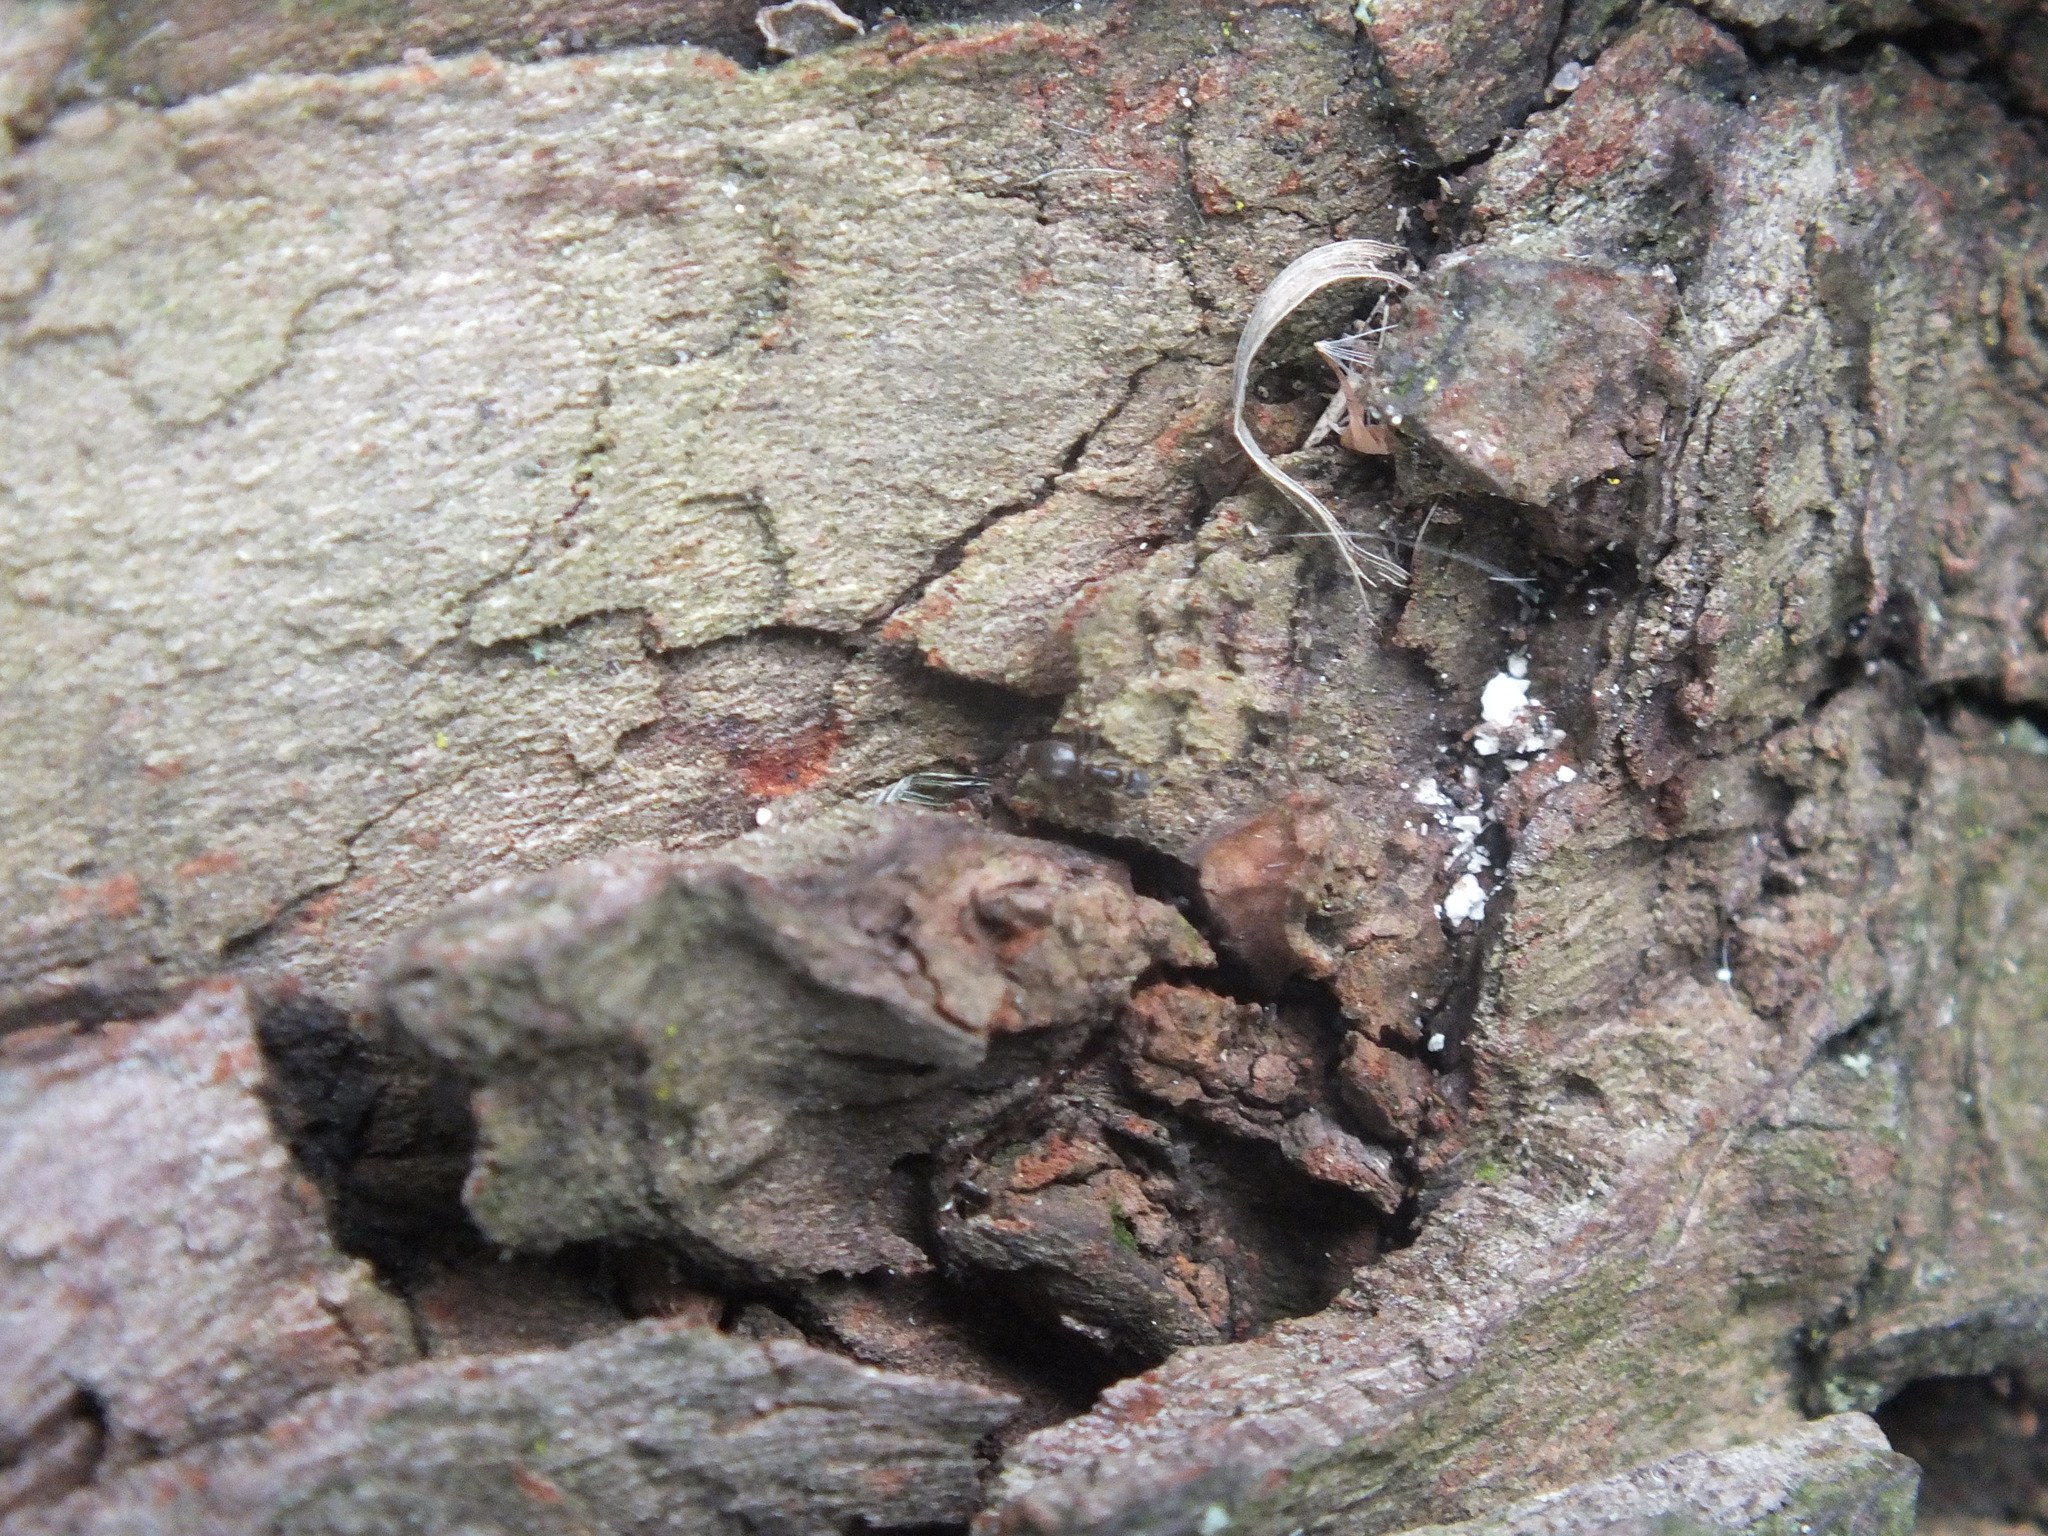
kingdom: Animalia
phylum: Arthropoda
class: Insecta
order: Hymenoptera
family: Formicidae
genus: Tapinoma
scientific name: Tapinoma sessile
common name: Odorous house ant
